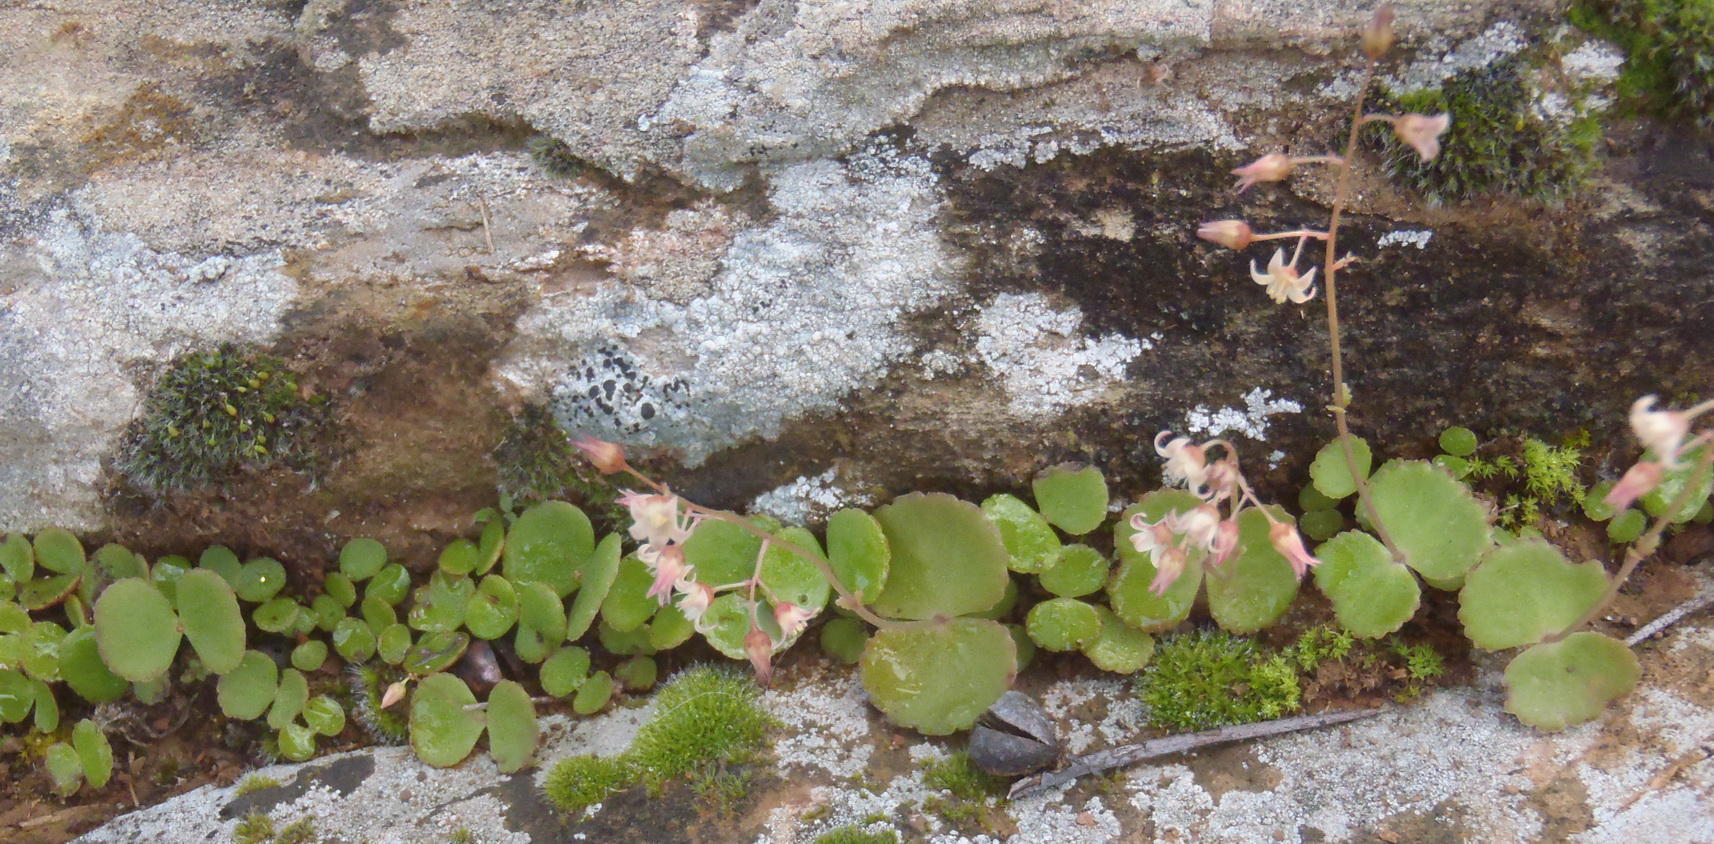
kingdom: Plantae
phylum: Tracheophyta
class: Magnoliopsida
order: Saxifragales
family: Crassulaceae
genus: Crassula
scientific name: Crassula umbella
